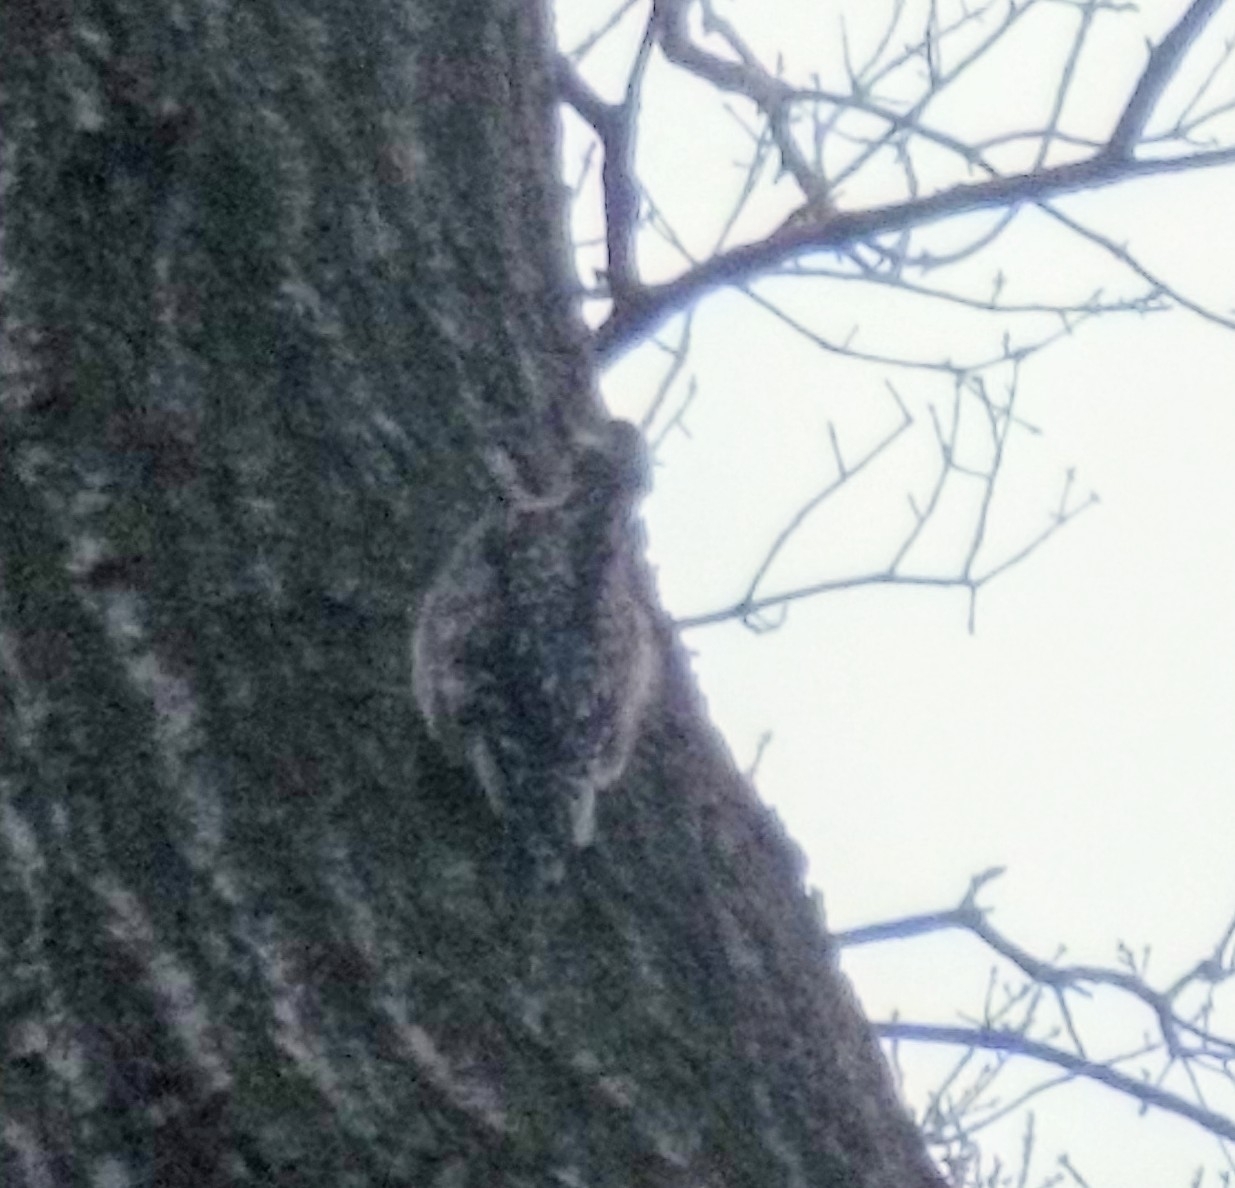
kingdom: Animalia
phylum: Chordata
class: Aves
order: Piciformes
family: Picidae
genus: Sphyrapicus
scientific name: Sphyrapicus varius
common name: Yellow-bellied sapsucker
